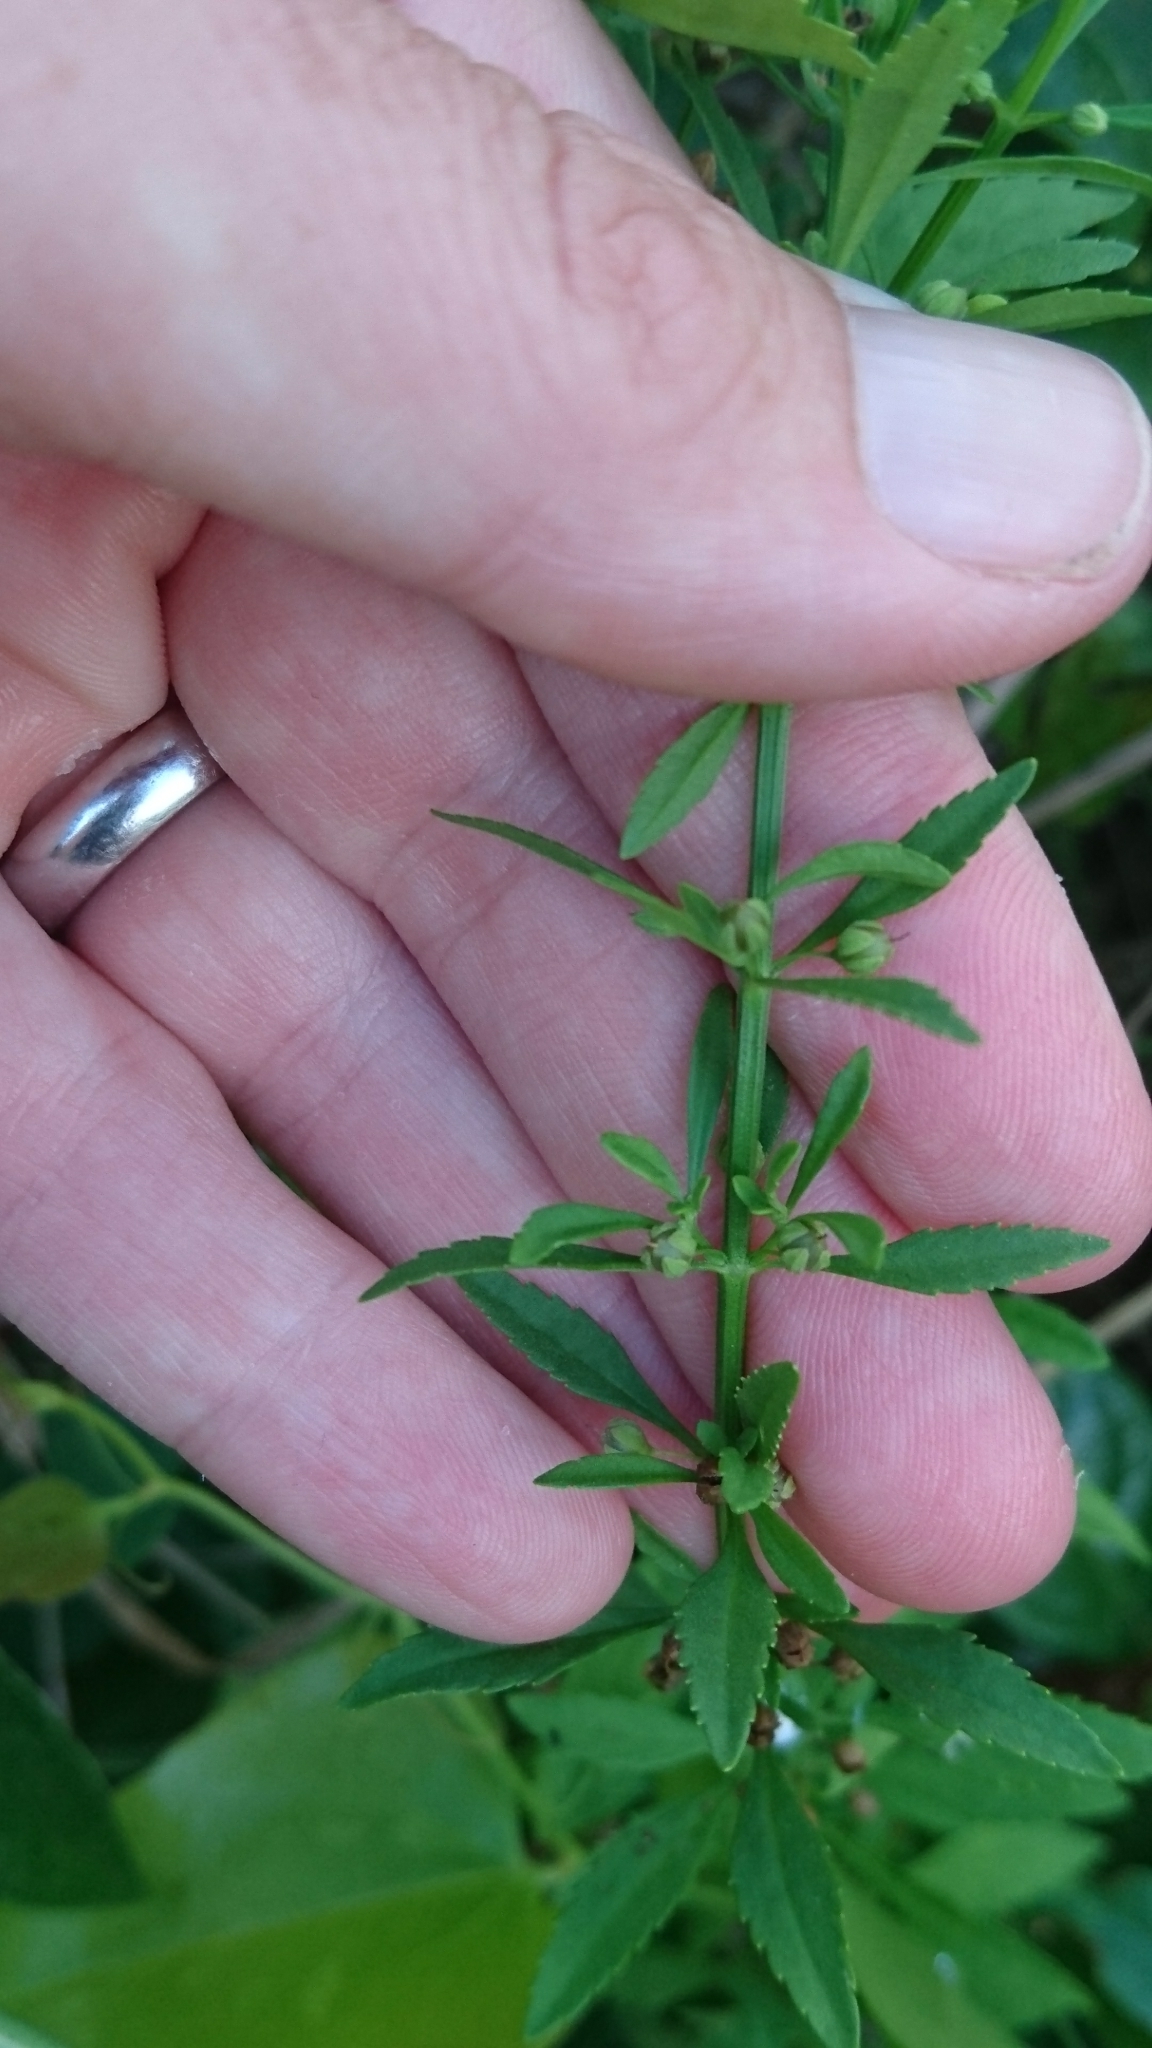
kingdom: Plantae
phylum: Tracheophyta
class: Magnoliopsida
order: Lamiales
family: Plantaginaceae
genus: Scoparia
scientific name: Scoparia dulcis
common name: Scoparia-weed
